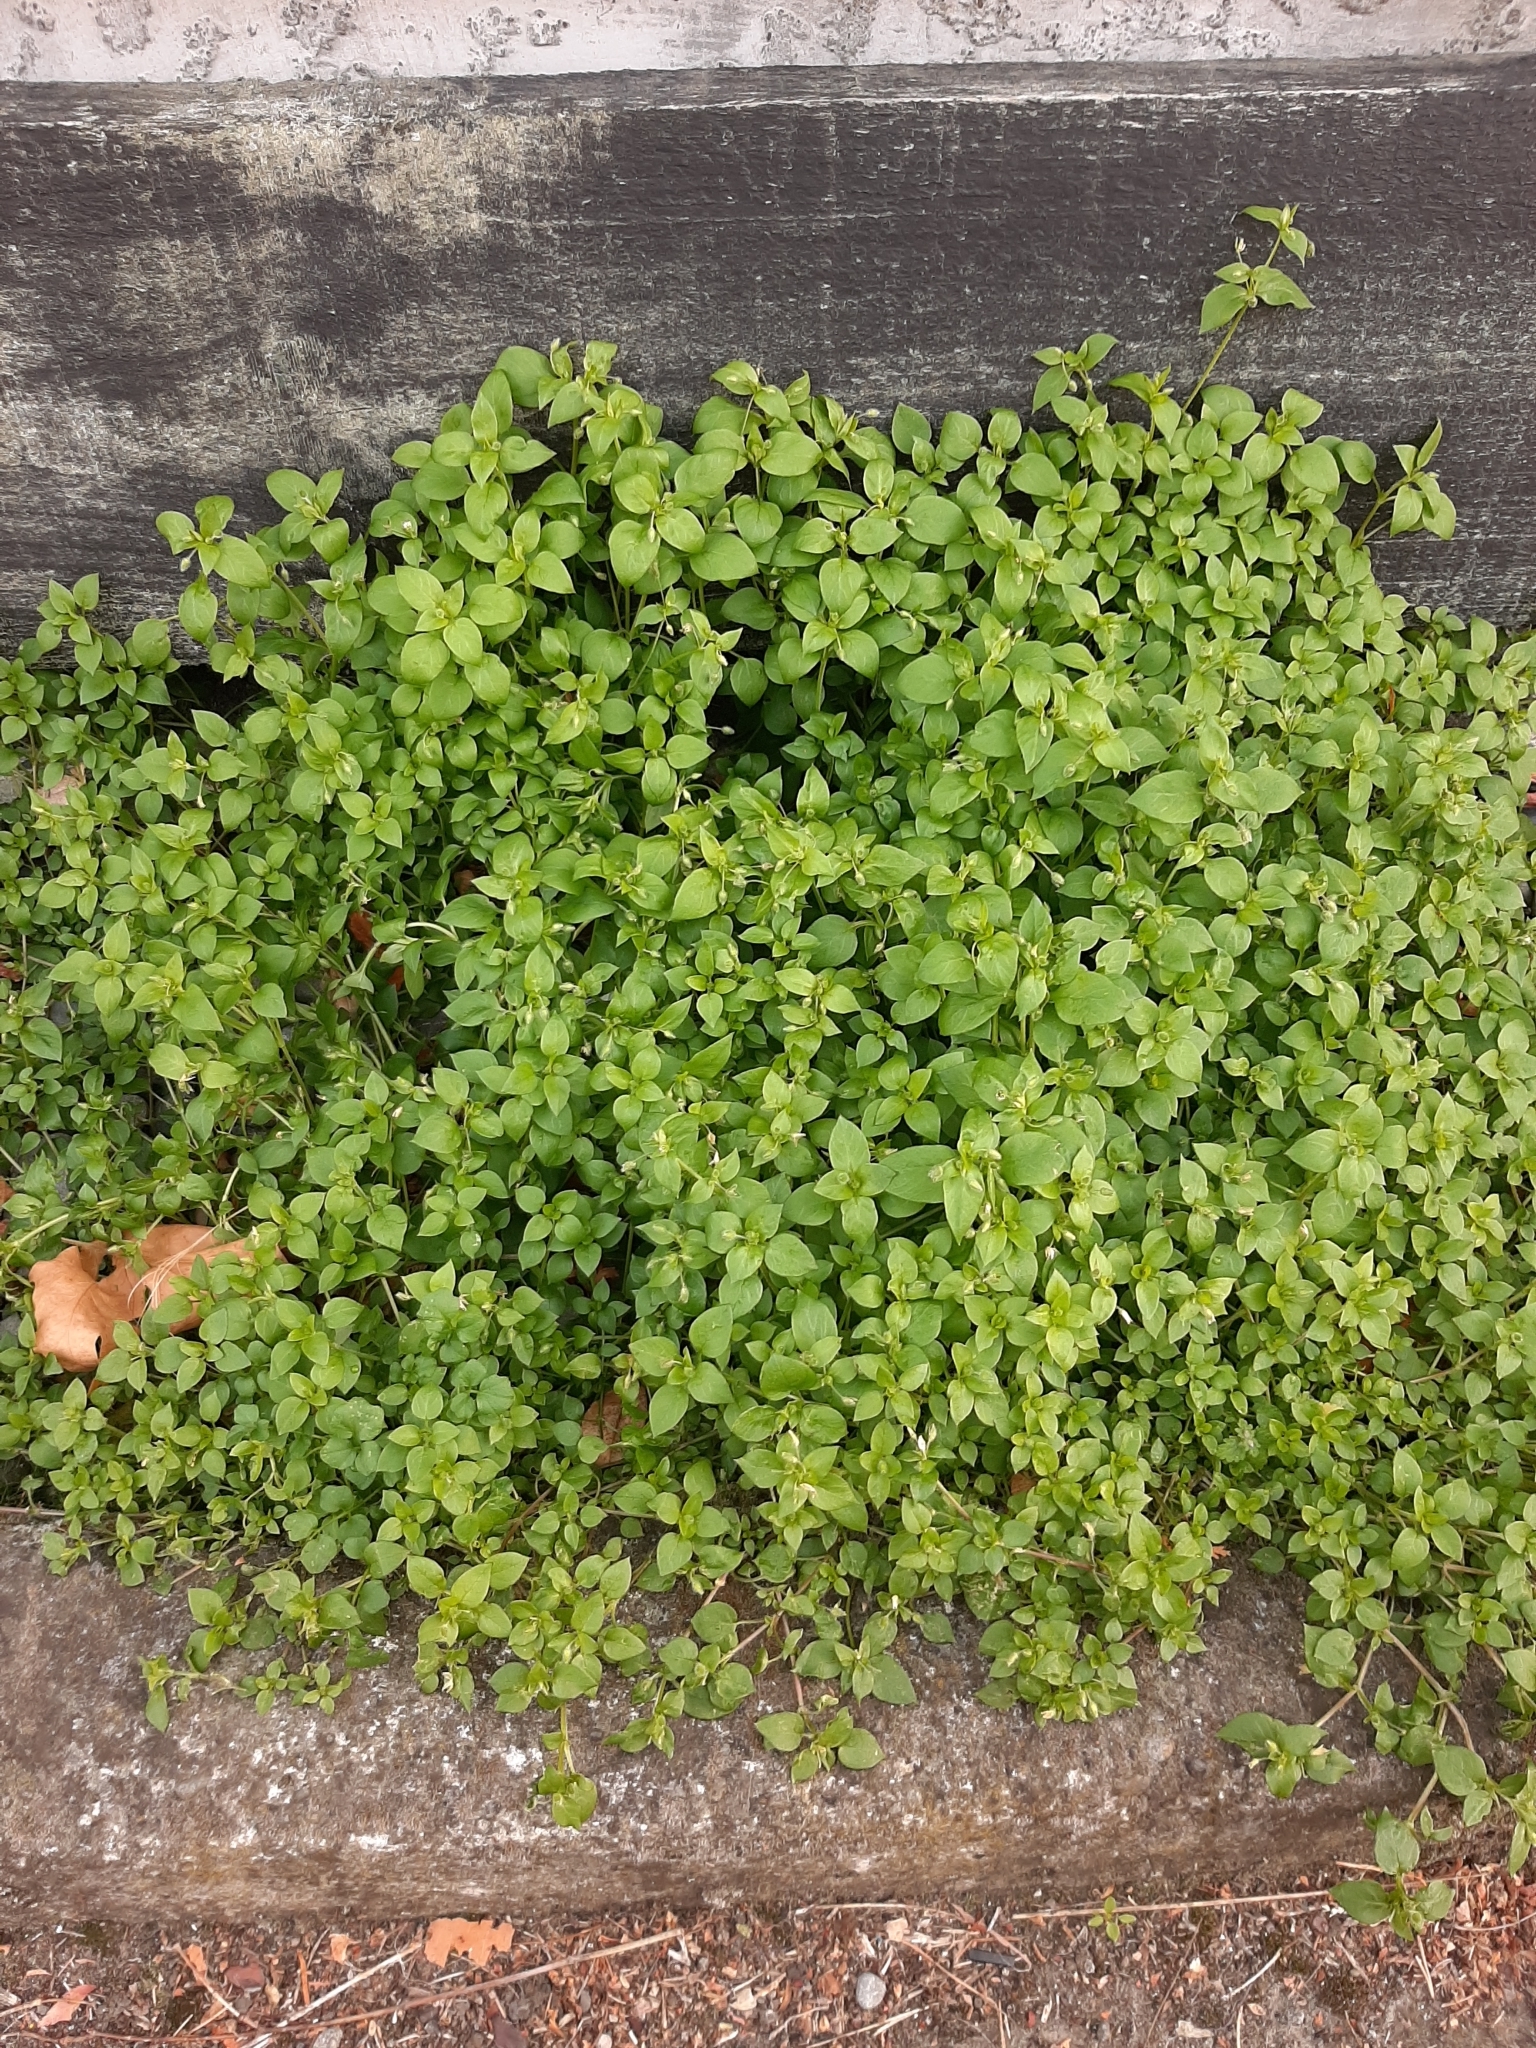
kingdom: Plantae
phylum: Tracheophyta
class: Magnoliopsida
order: Caryophyllales
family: Caryophyllaceae
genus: Stellaria
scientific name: Stellaria media
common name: Common chickweed
